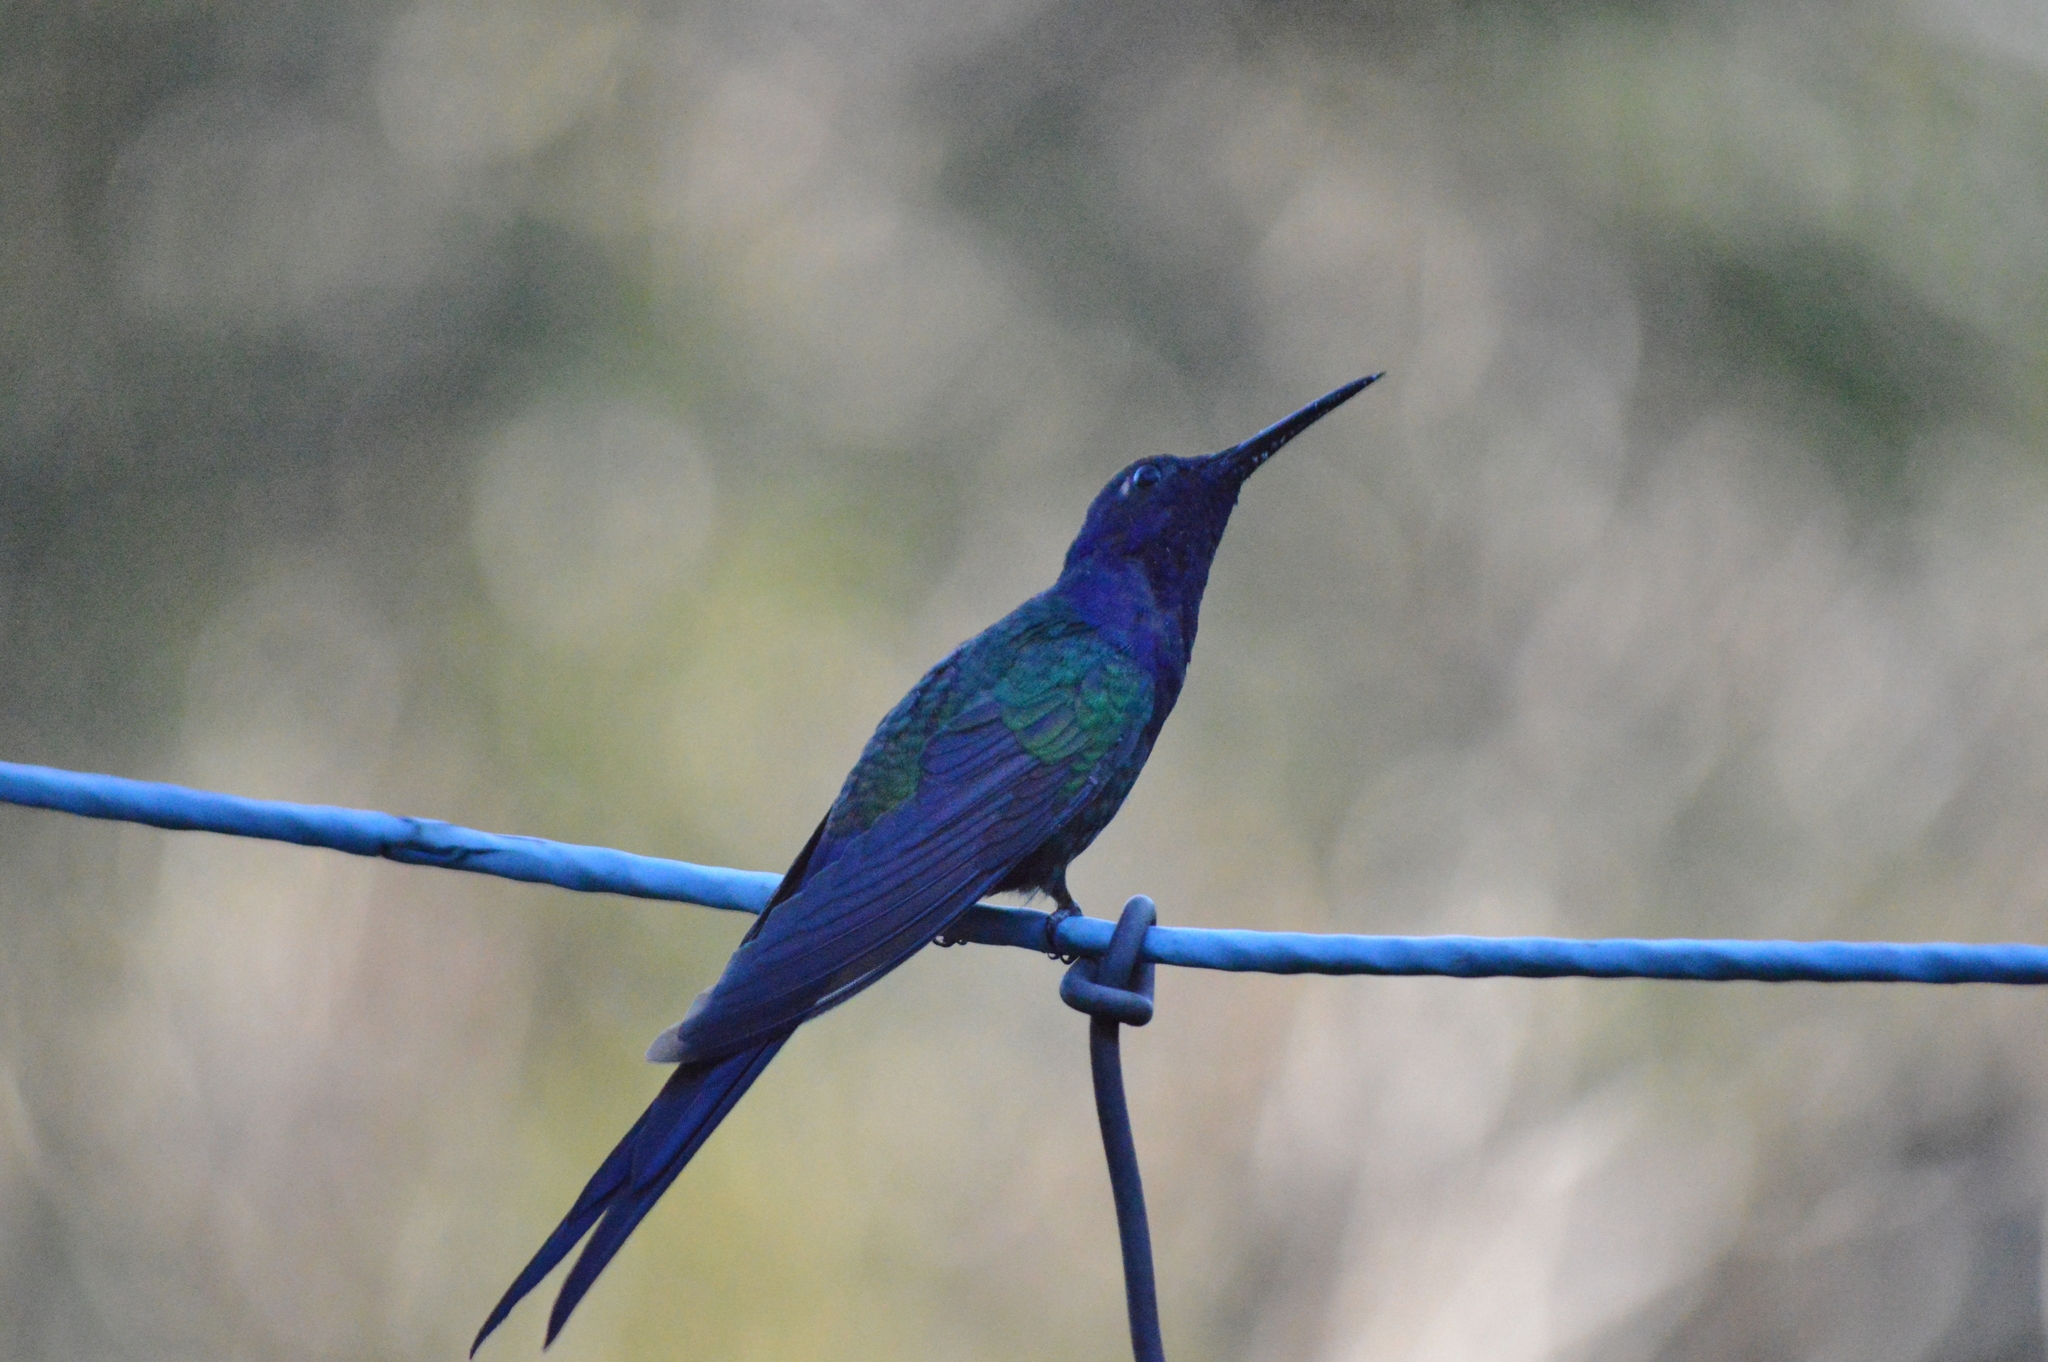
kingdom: Animalia
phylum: Chordata
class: Aves
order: Apodiformes
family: Trochilidae
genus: Eupetomena
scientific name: Eupetomena macroura
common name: Swallow-tailed hummingbird
